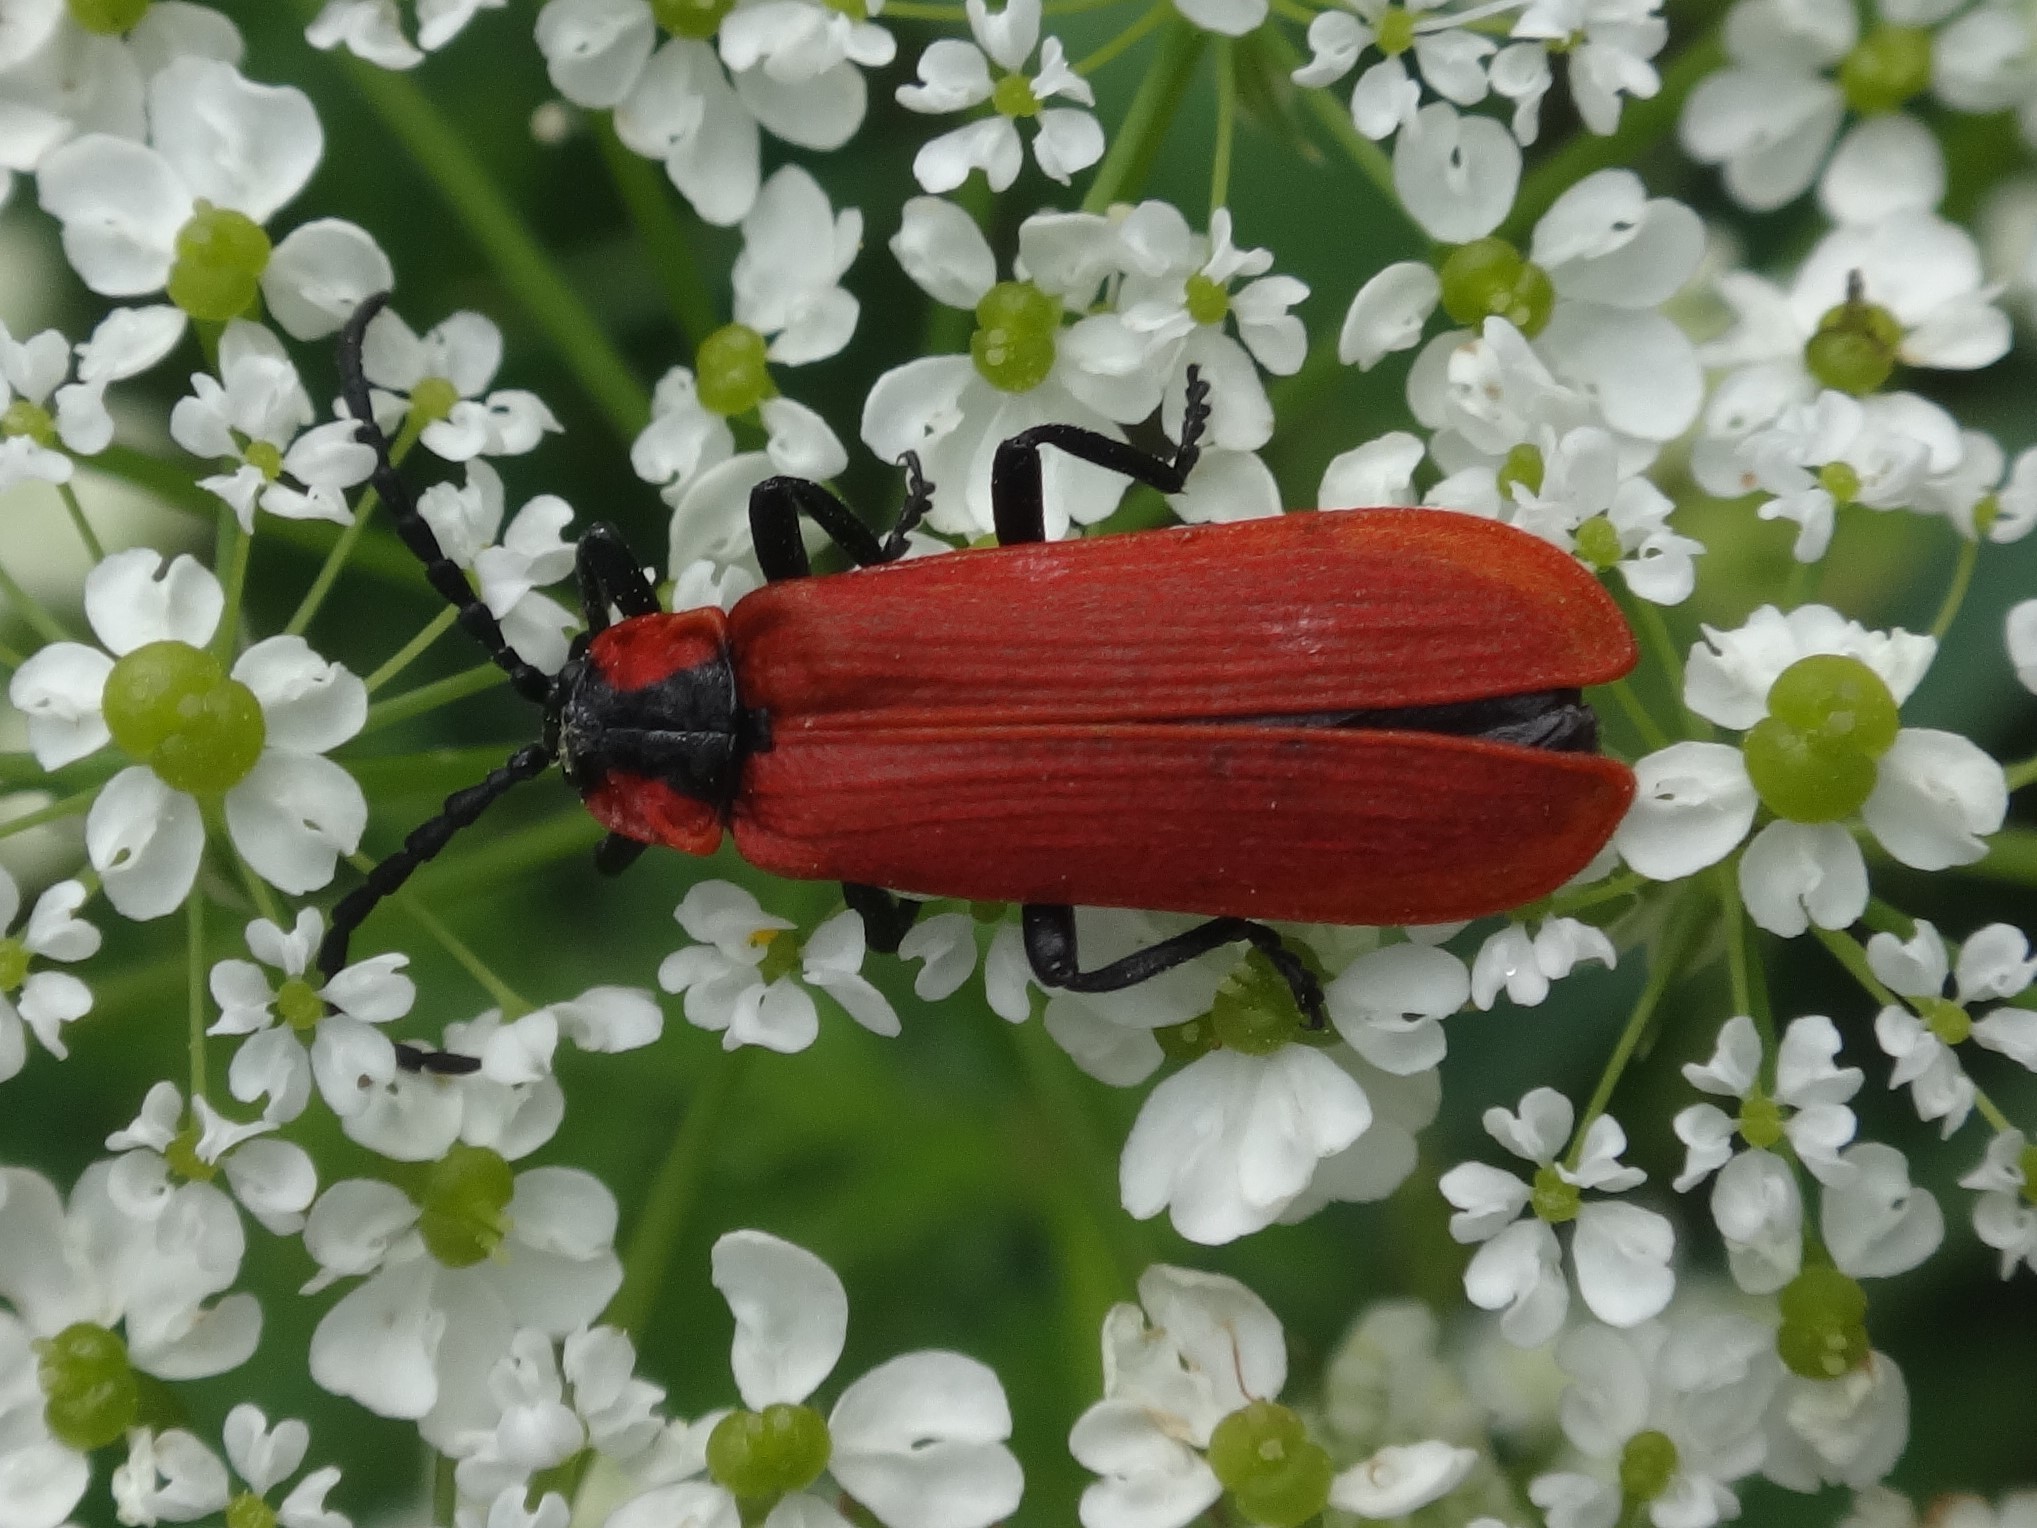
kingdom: Animalia
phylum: Arthropoda
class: Insecta
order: Coleoptera
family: Lycidae
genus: Lygistopterus
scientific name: Lygistopterus sanguineus
